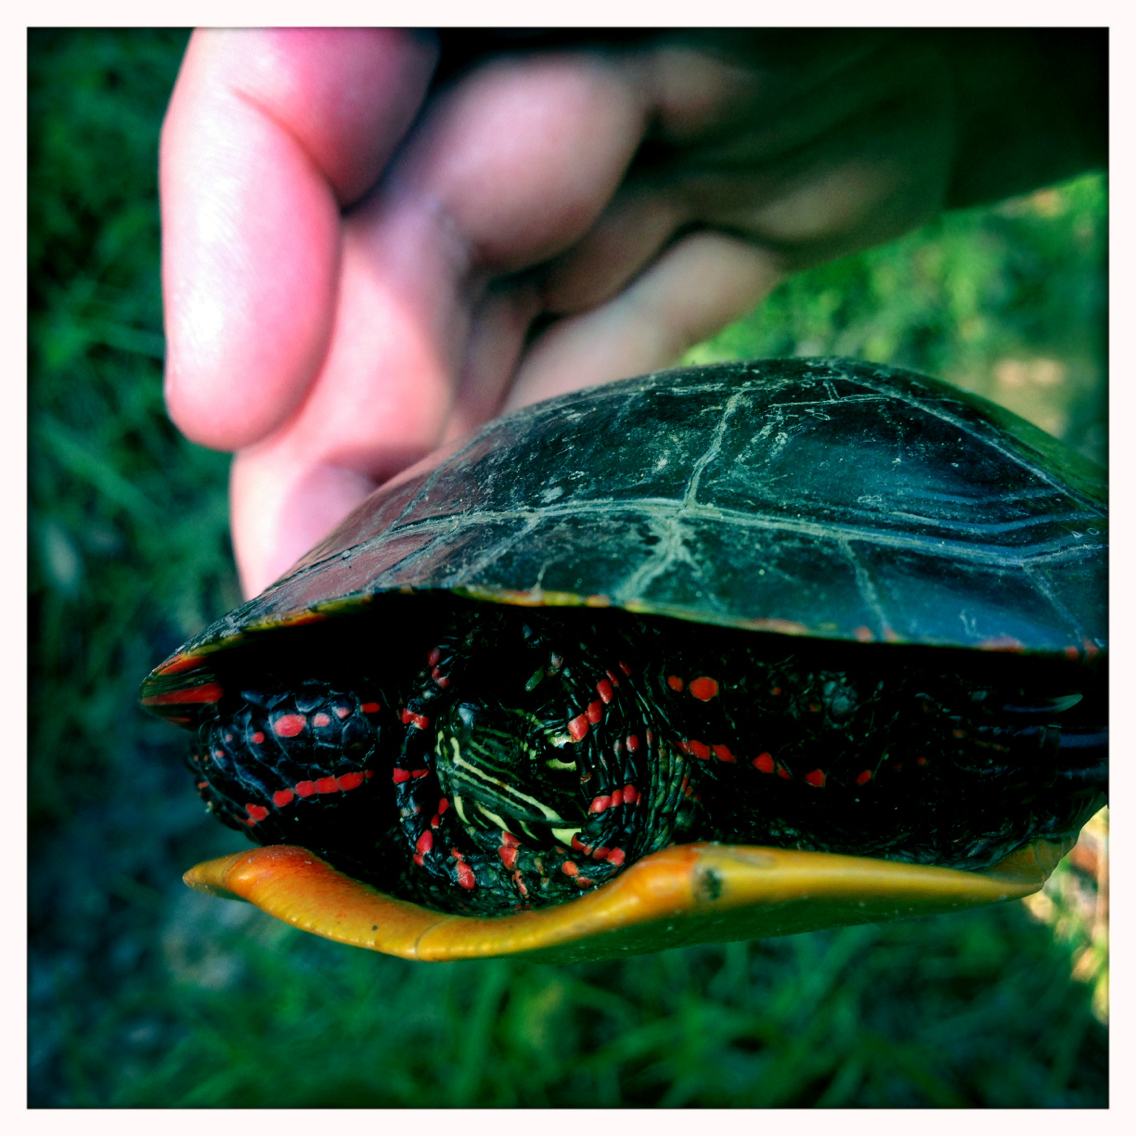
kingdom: Animalia
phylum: Chordata
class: Testudines
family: Emydidae
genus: Chrysemys
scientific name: Chrysemys picta
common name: Painted turtle
